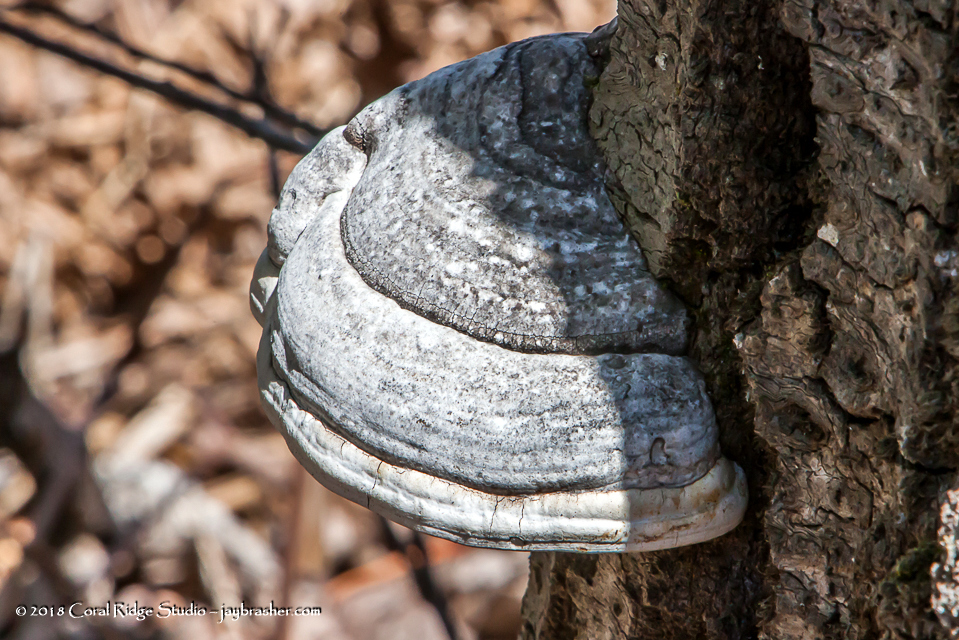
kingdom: Fungi
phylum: Basidiomycota
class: Agaricomycetes
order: Polyporales
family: Polyporaceae
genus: Fomes
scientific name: Fomes fomentarius
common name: Hoof fungus
